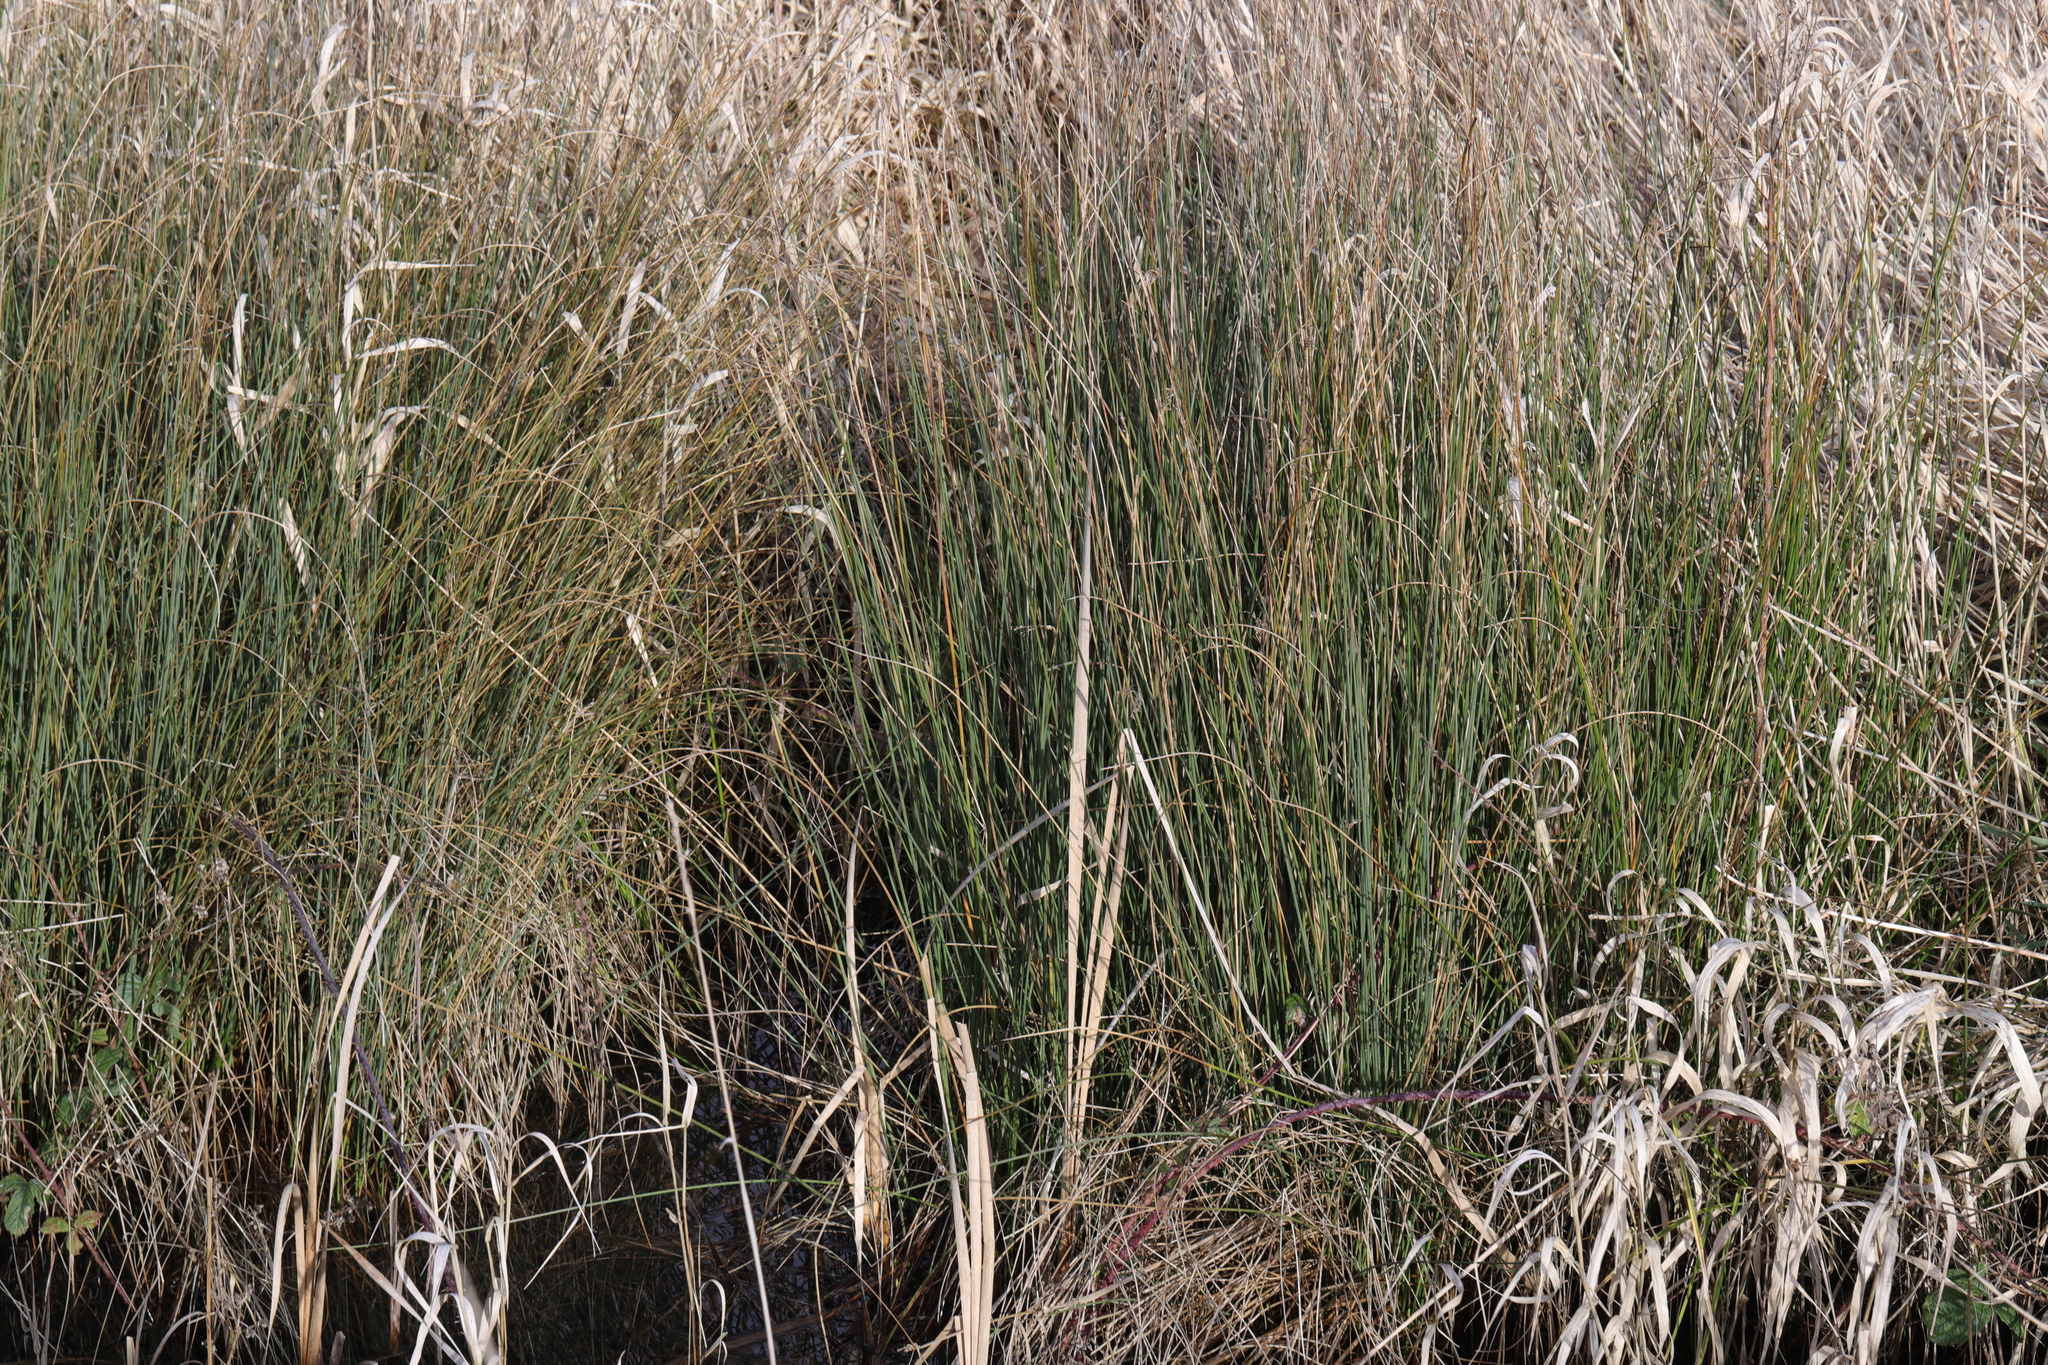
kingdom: Plantae
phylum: Tracheophyta
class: Liliopsida
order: Poales
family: Juncaceae
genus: Juncus
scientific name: Juncus inflexus
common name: Hard rush
